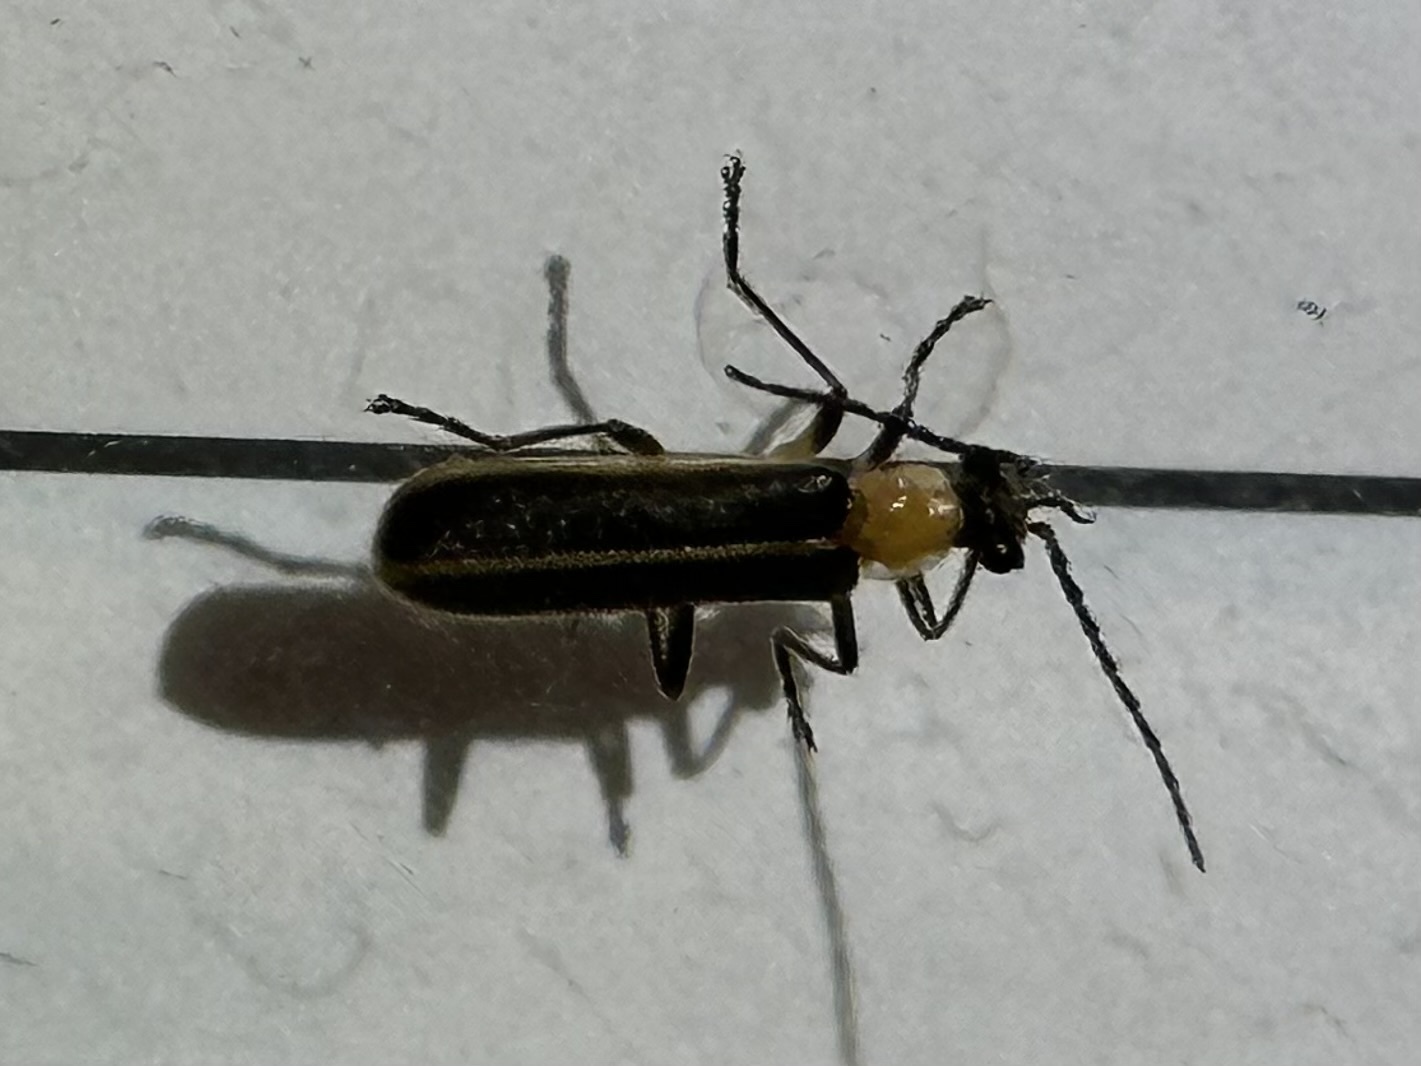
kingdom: Animalia
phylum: Arthropoda
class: Insecta
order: Coleoptera
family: Cantharidae
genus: Podabrus
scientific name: Podabrus flavicollis
